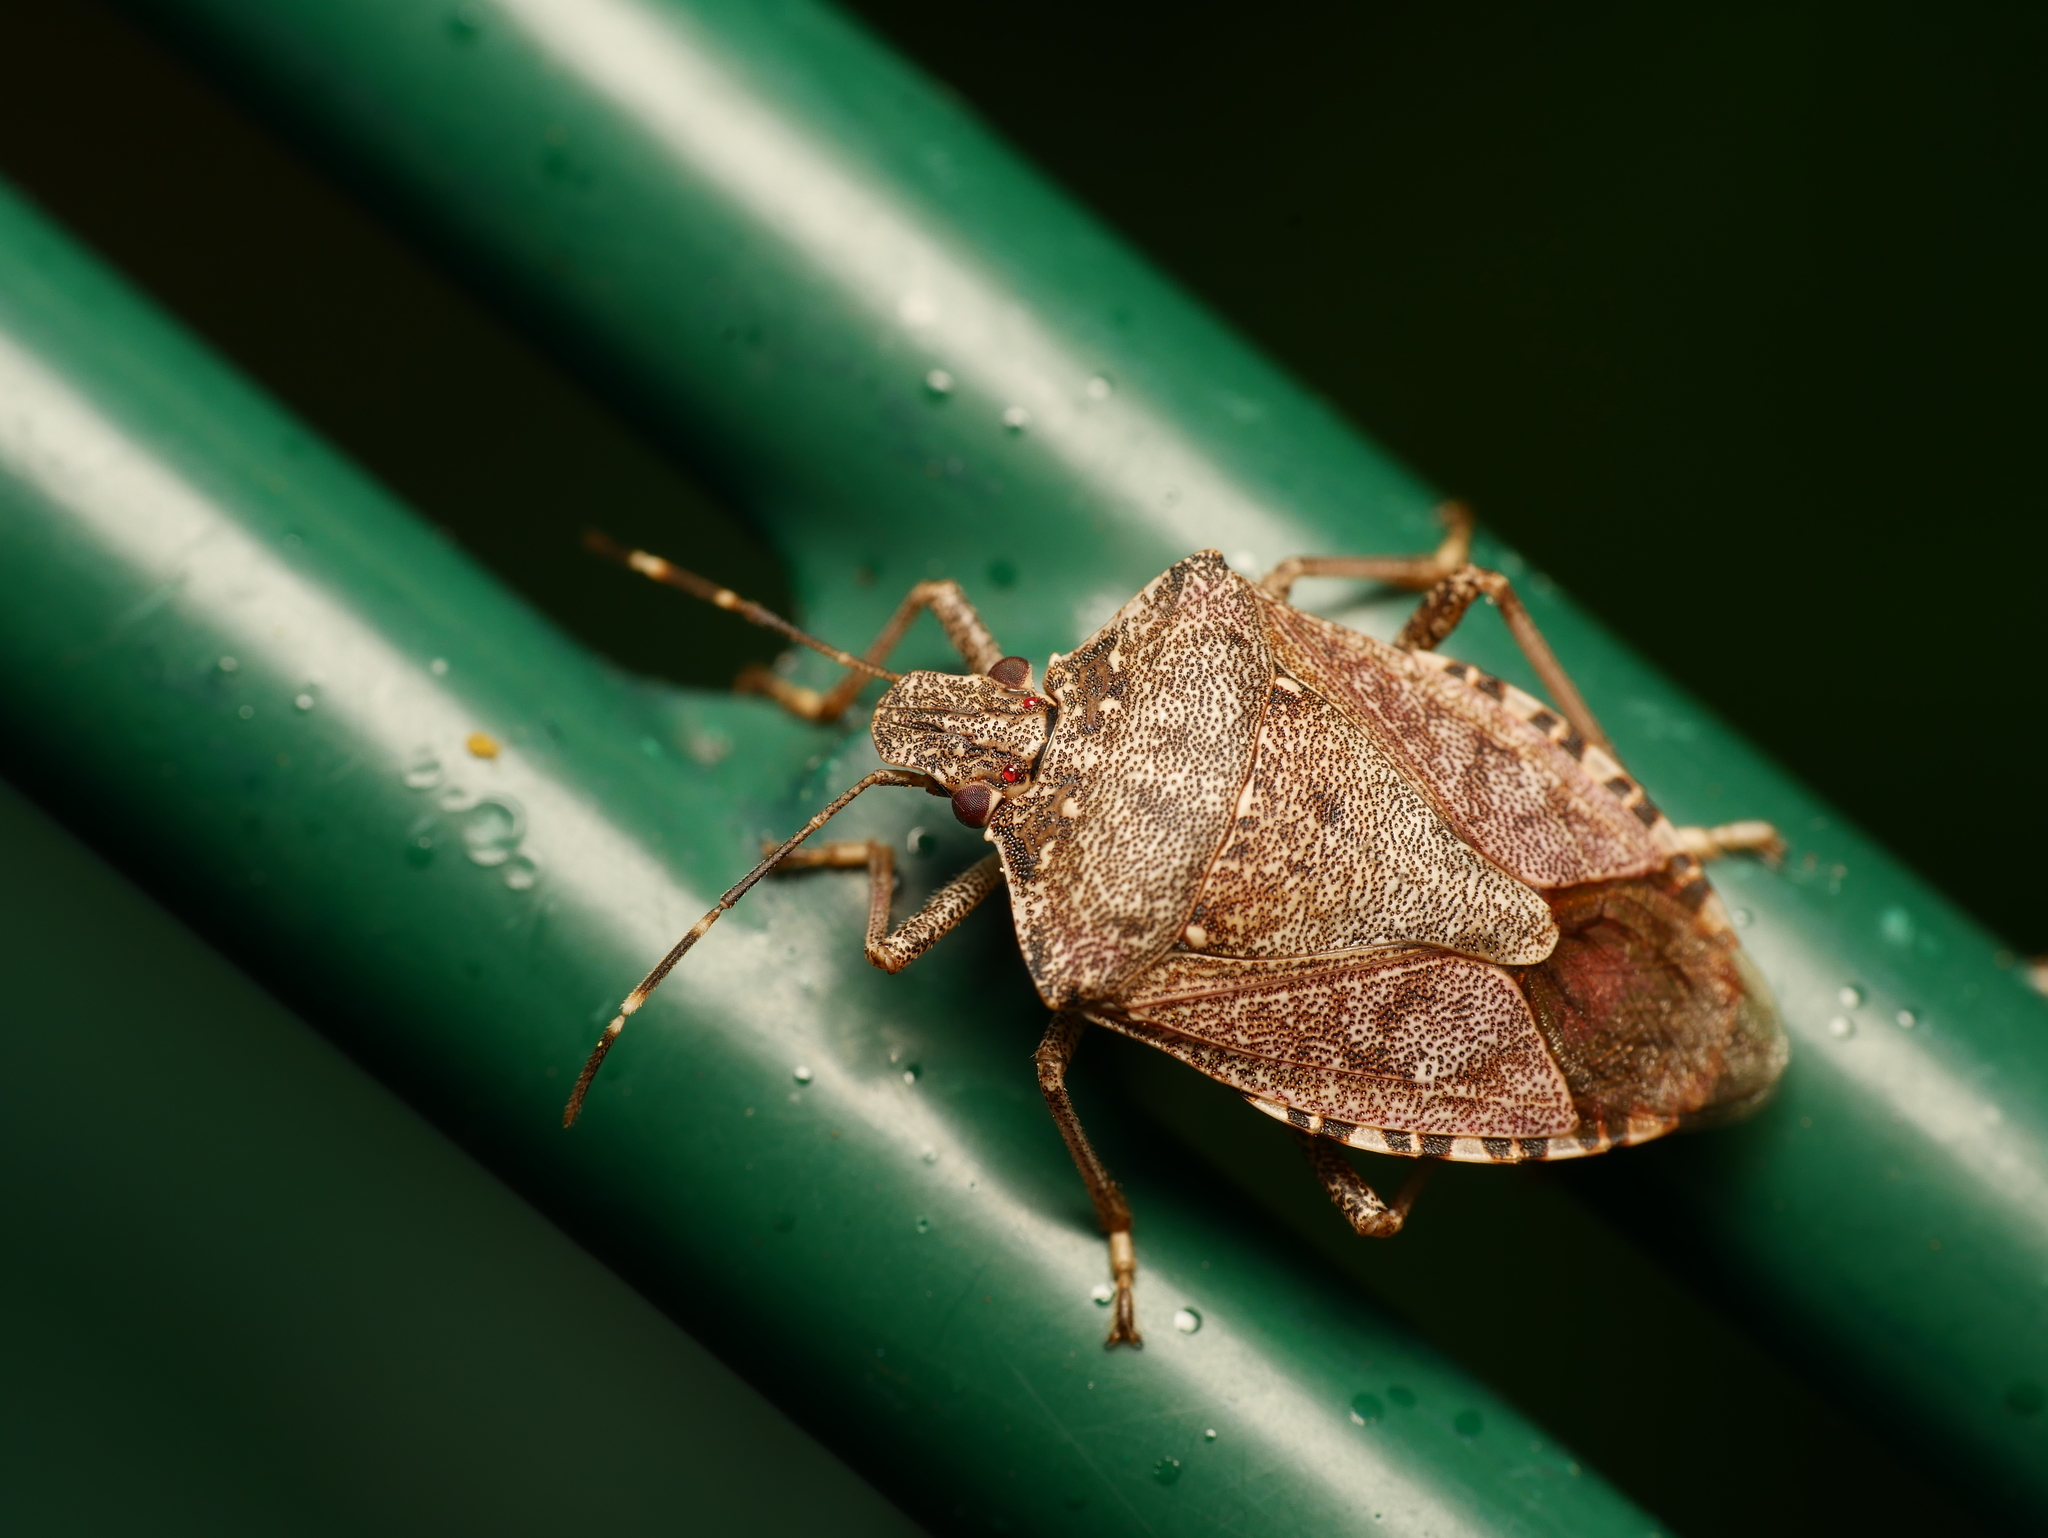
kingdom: Animalia
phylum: Arthropoda
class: Insecta
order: Hemiptera
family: Pentatomidae
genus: Halyomorpha
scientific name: Halyomorpha halys
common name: Brown marmorated stink bug
